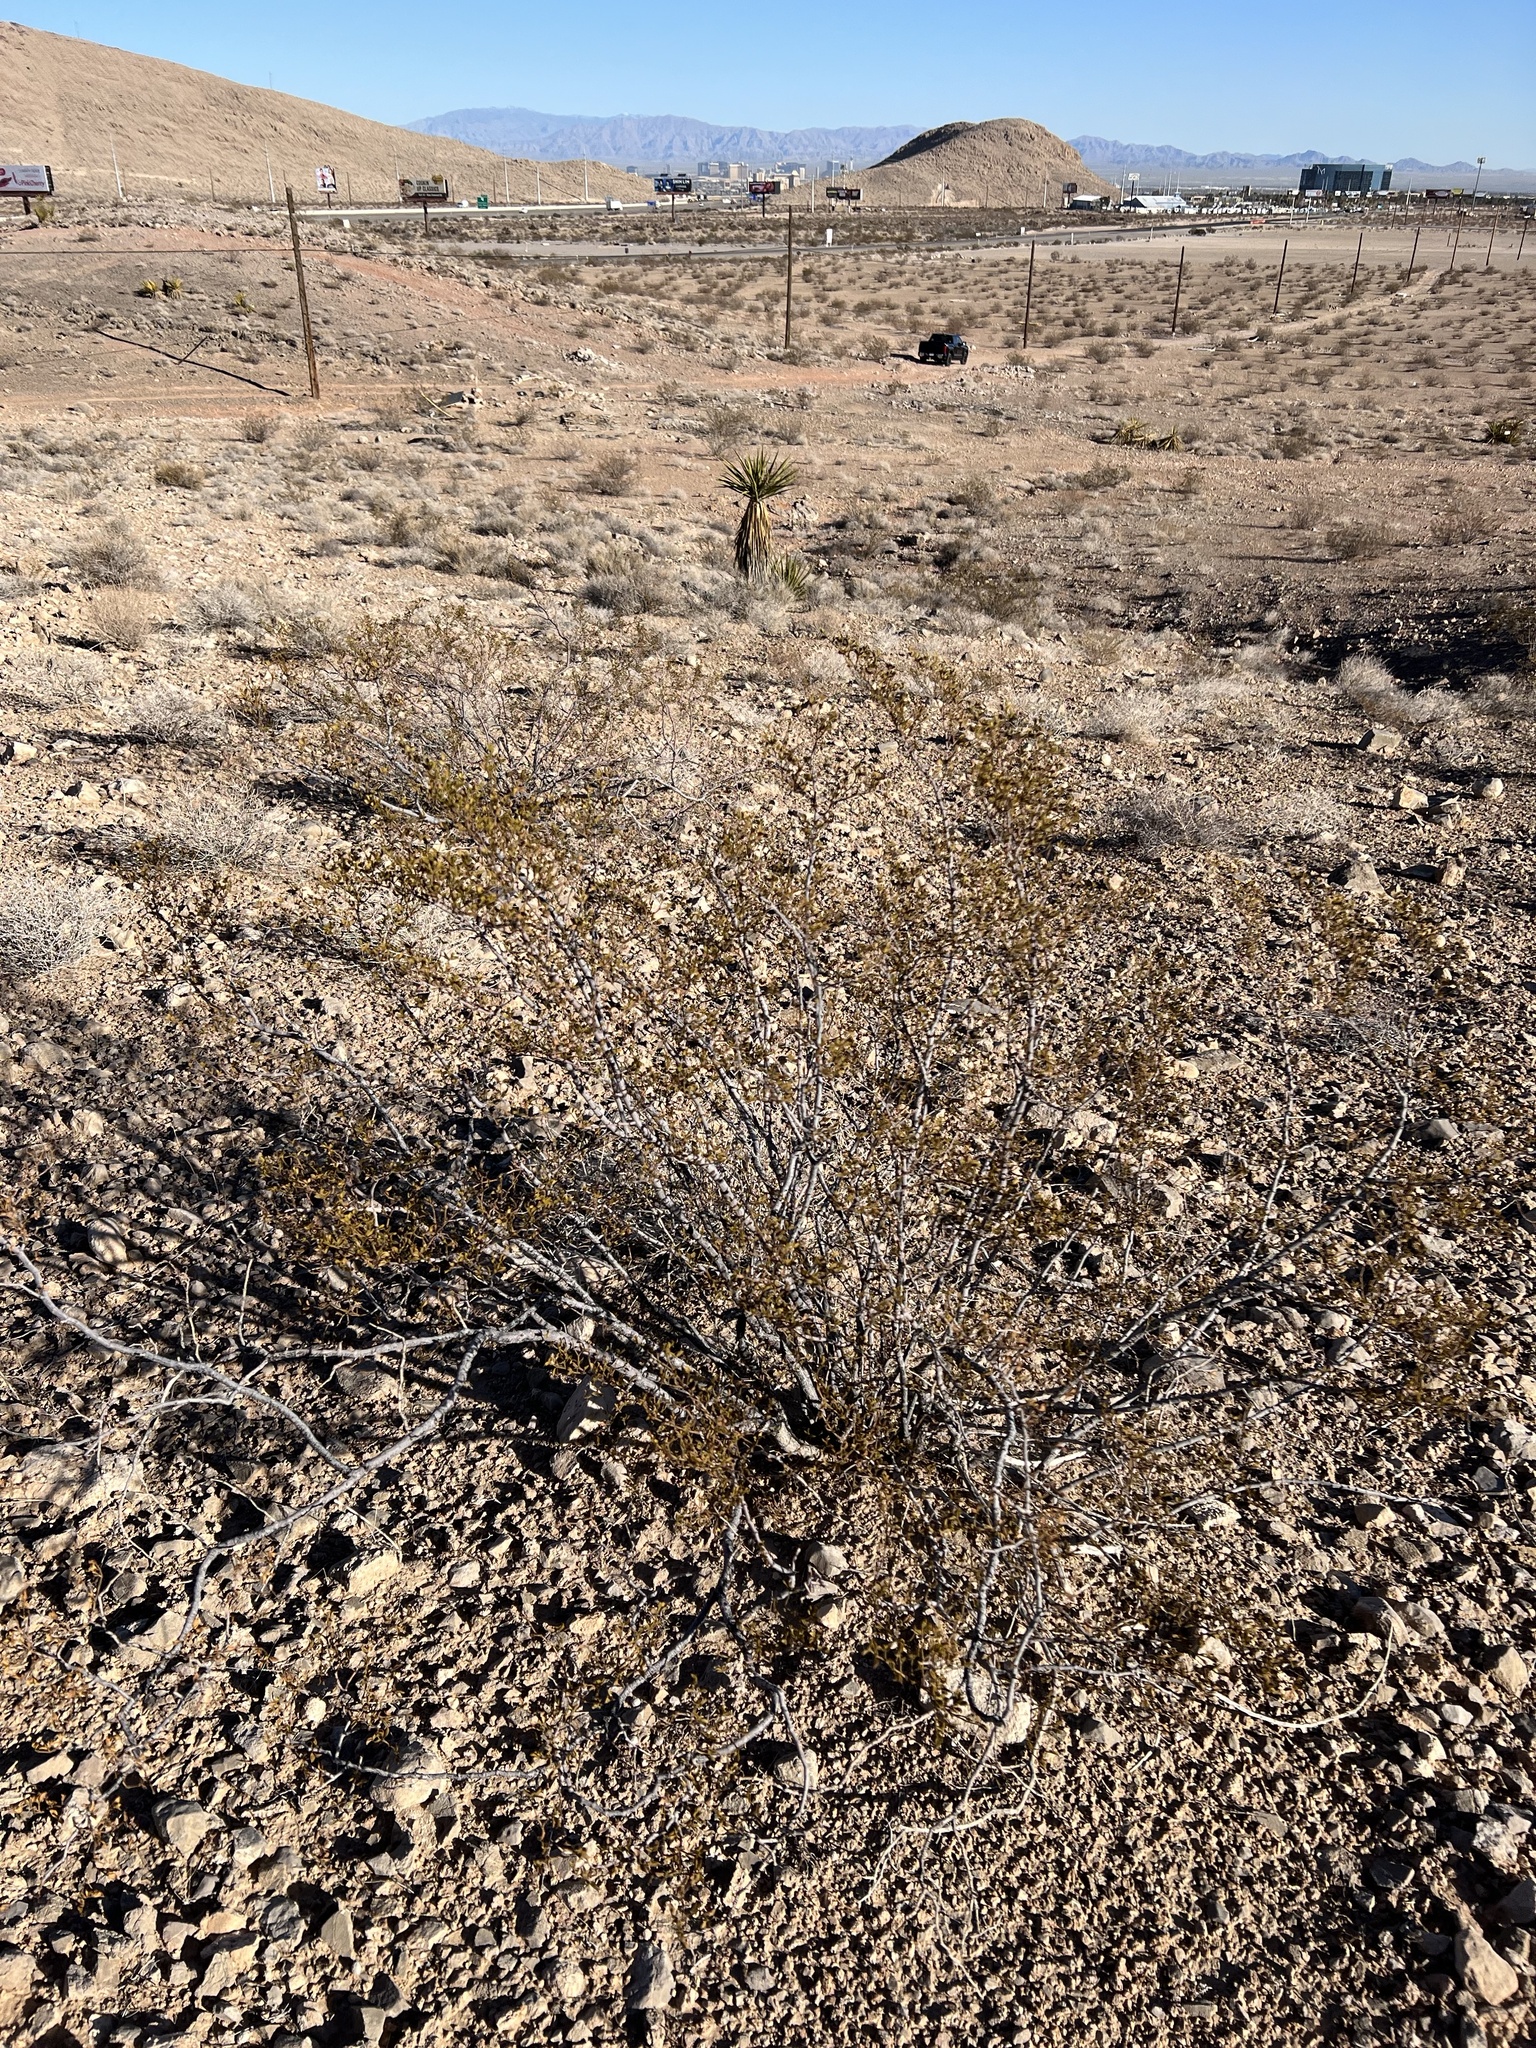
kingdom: Plantae
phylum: Tracheophyta
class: Magnoliopsida
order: Zygophyllales
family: Zygophyllaceae
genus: Larrea
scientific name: Larrea tridentata
